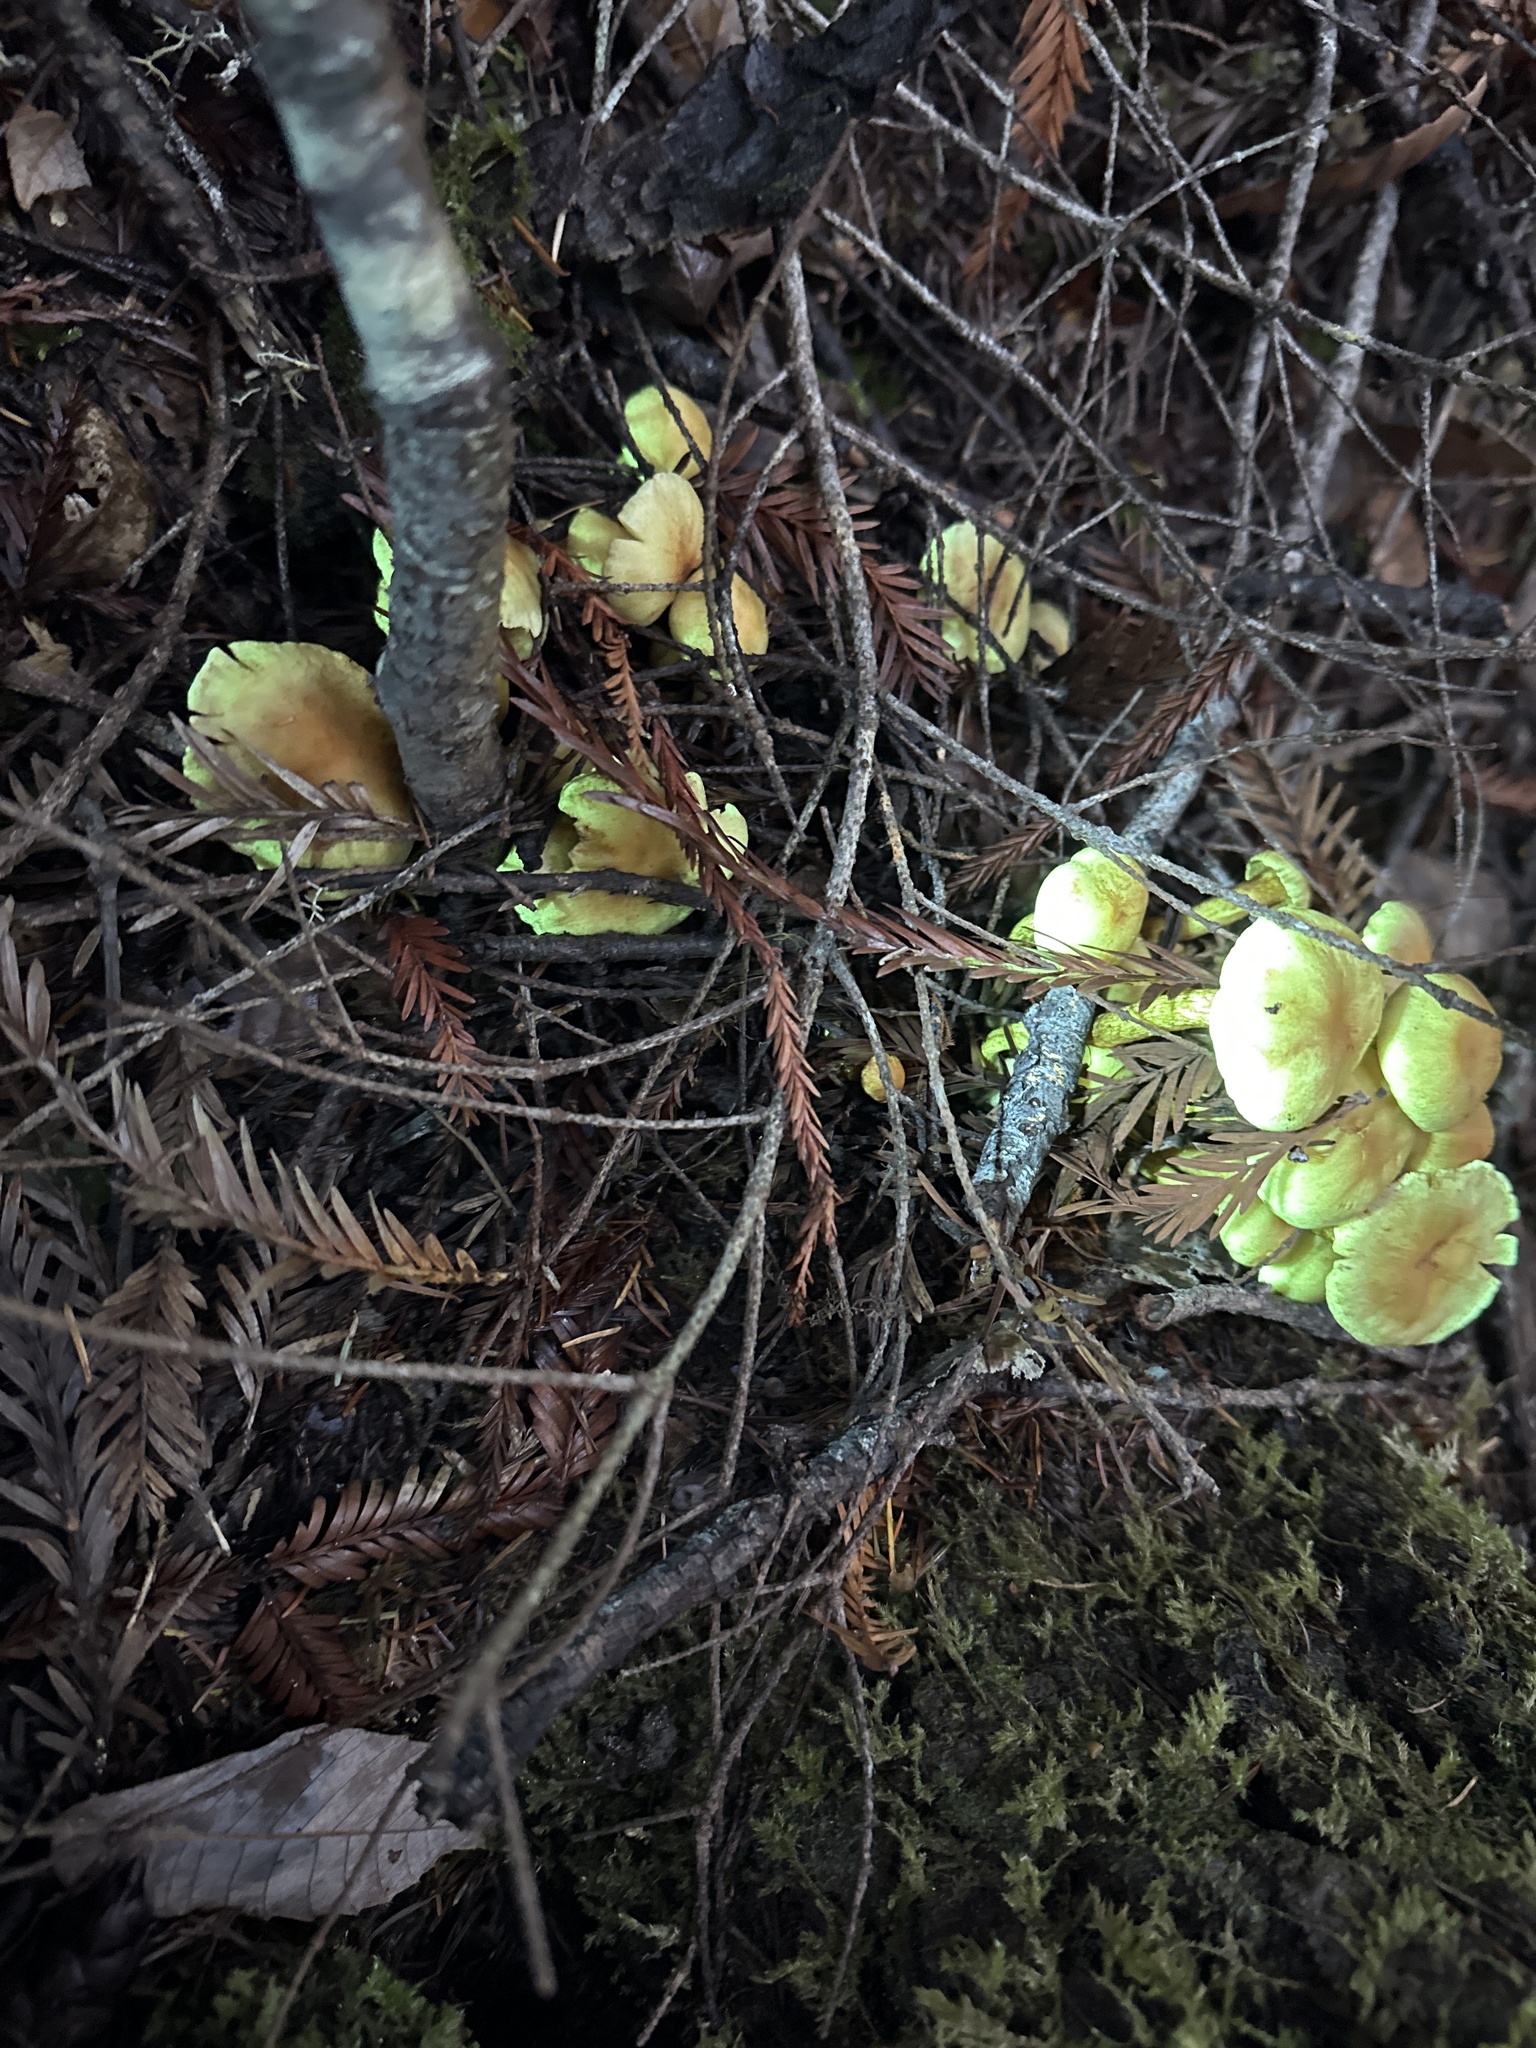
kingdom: Fungi
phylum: Basidiomycota
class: Agaricomycetes
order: Agaricales
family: Strophariaceae
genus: Hypholoma
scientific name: Hypholoma fasciculare
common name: Sulphur tuft
